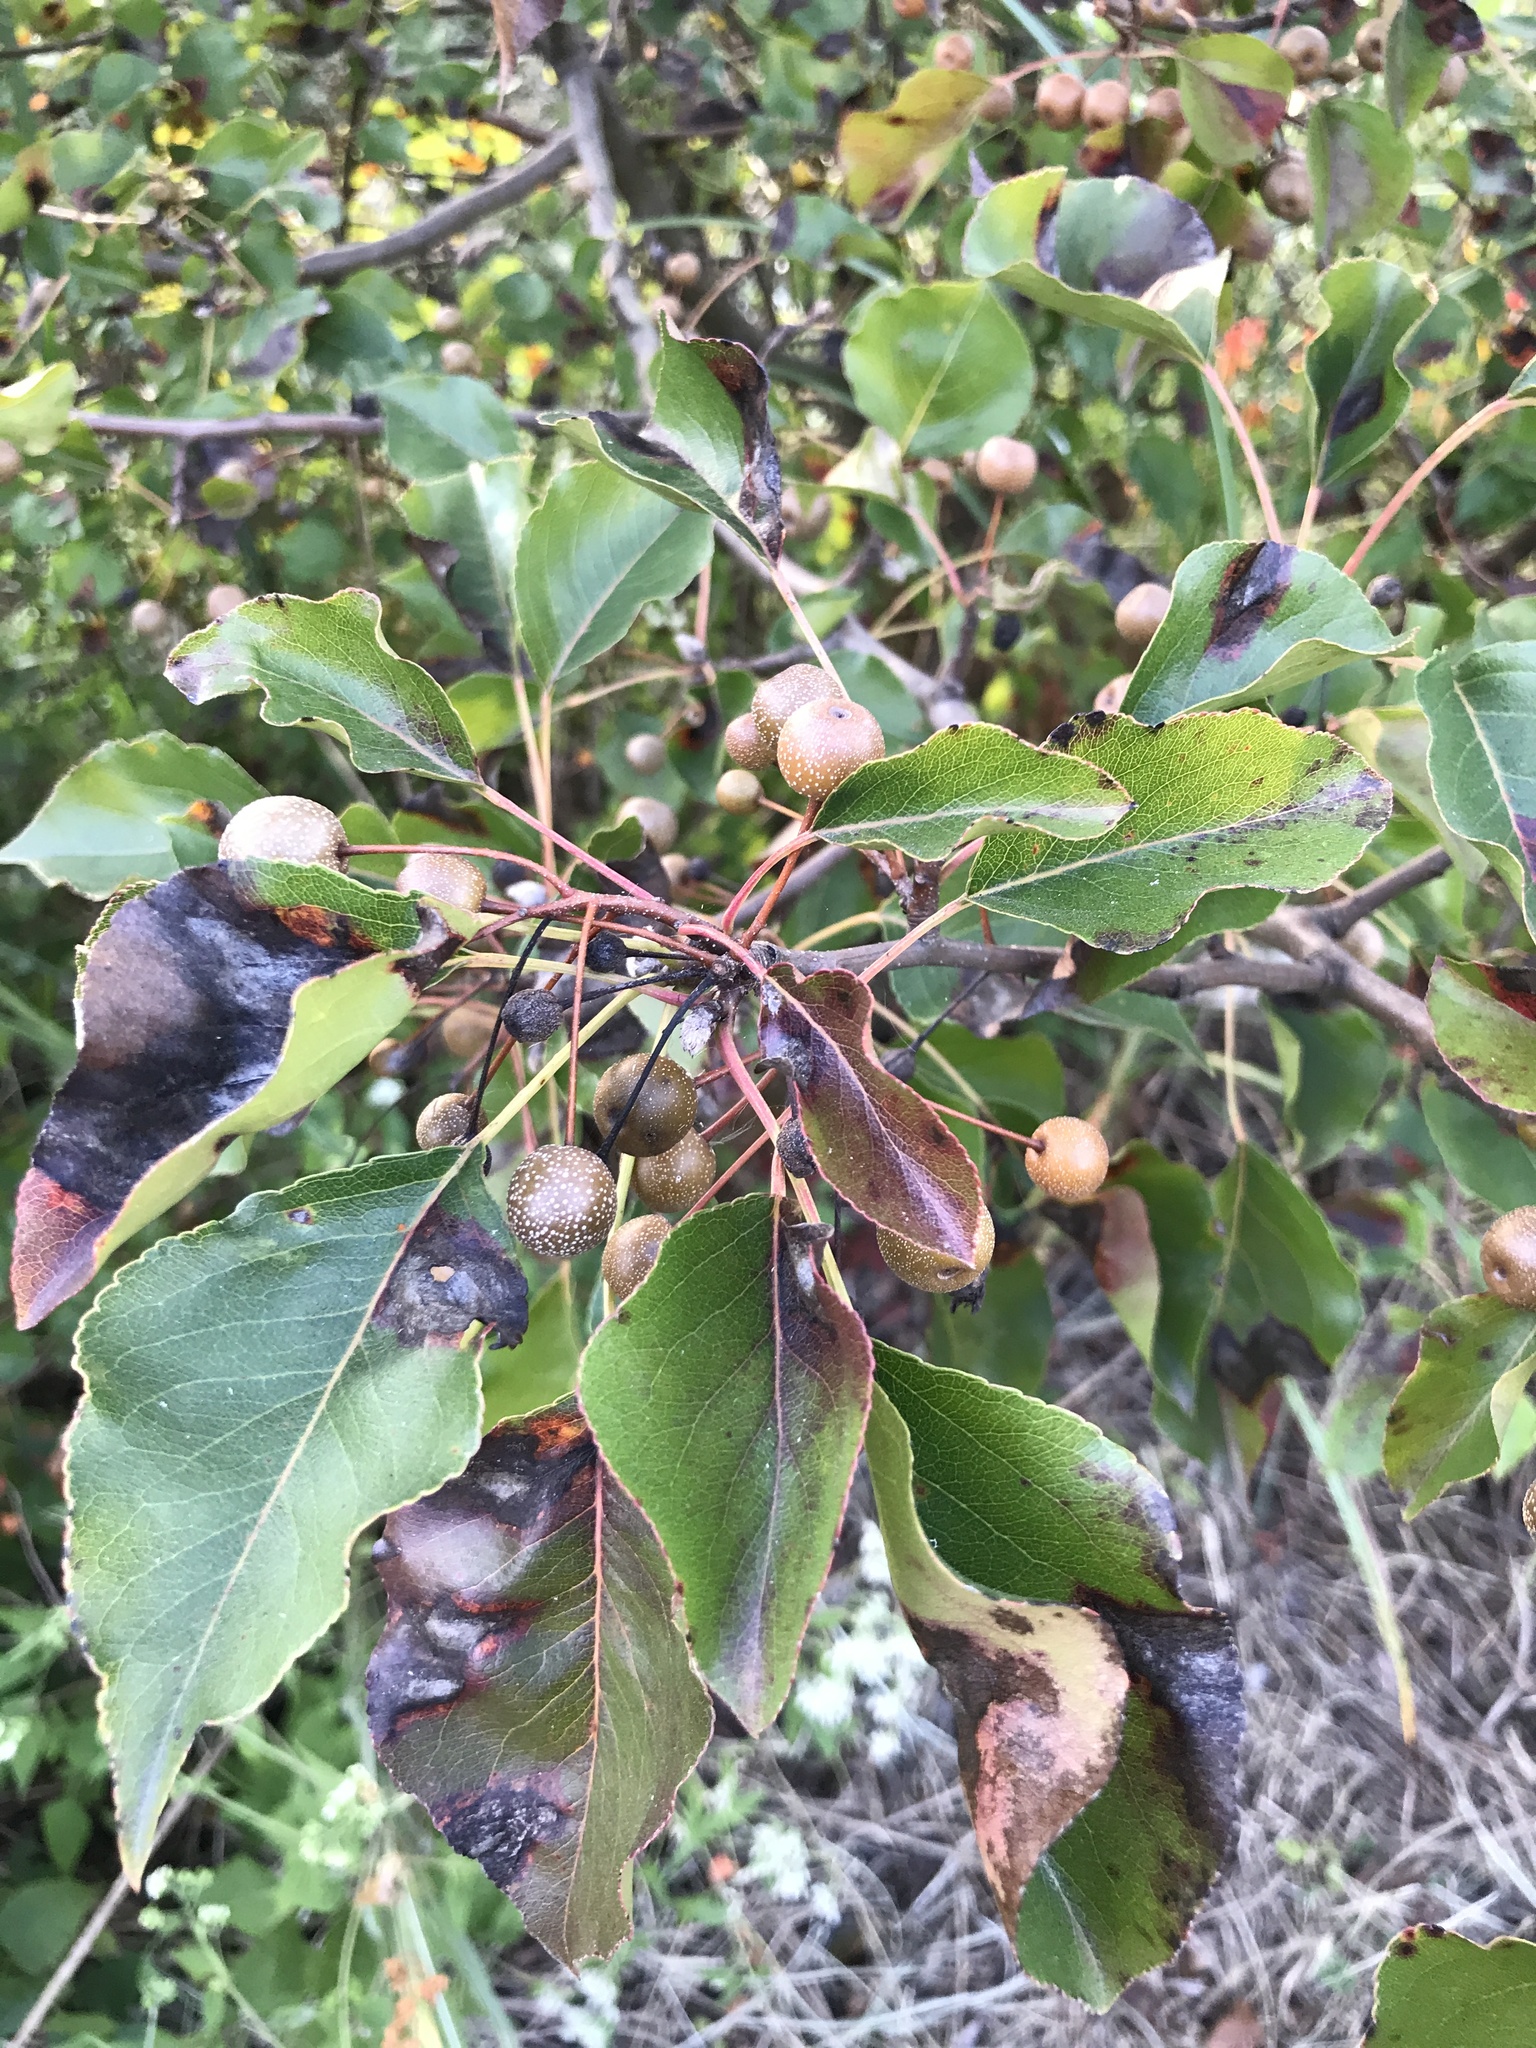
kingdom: Plantae
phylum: Tracheophyta
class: Magnoliopsida
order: Rosales
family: Rosaceae
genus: Pyrus
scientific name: Pyrus calleryana
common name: Callery pear
